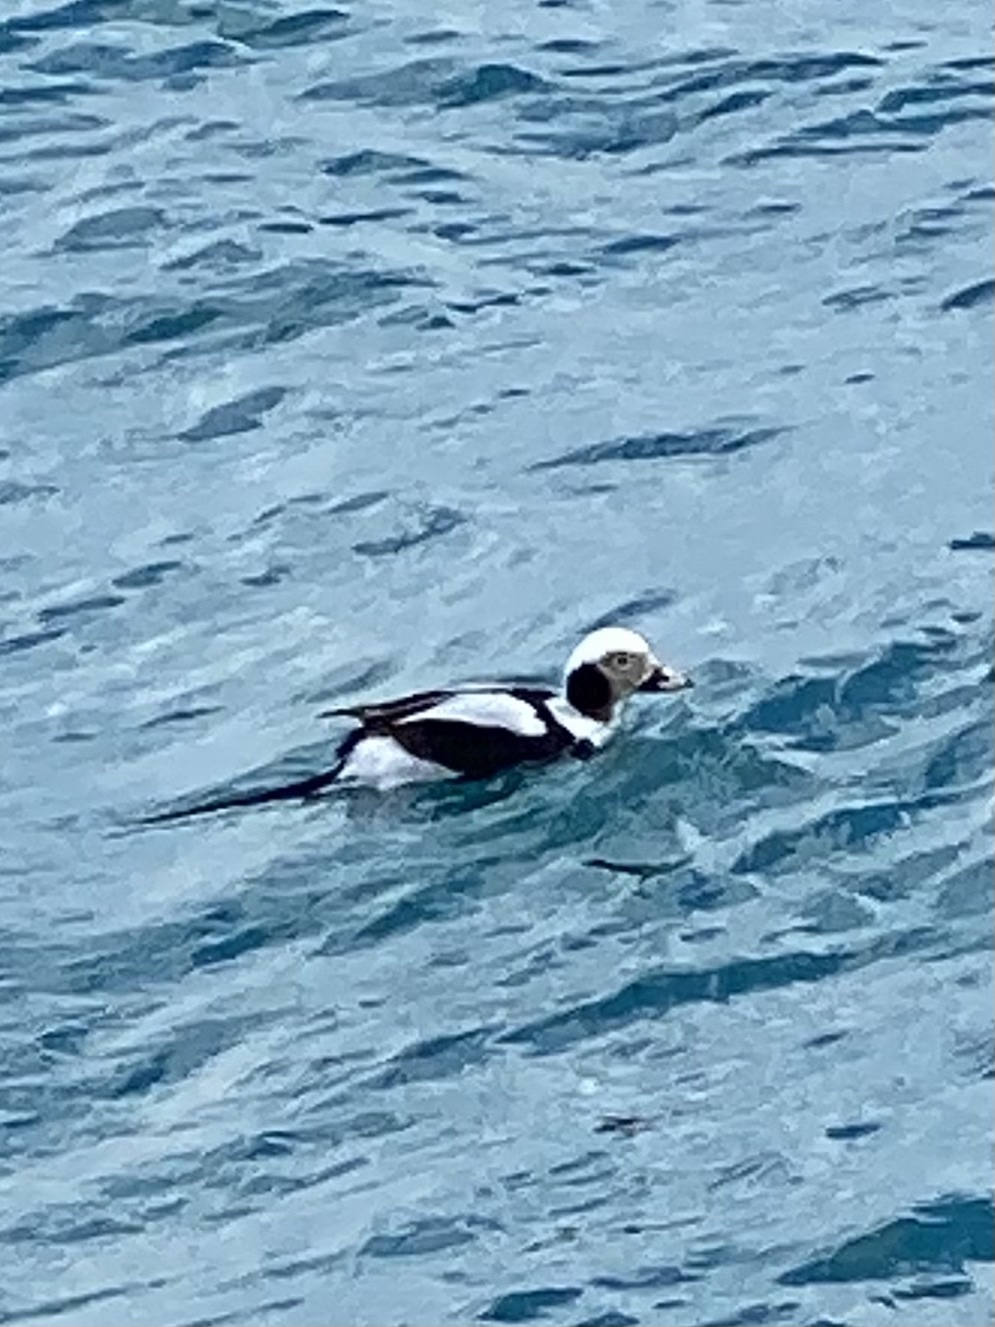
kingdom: Animalia
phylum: Chordata
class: Aves
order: Anseriformes
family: Anatidae
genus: Clangula
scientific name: Clangula hyemalis
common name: Long-tailed duck
